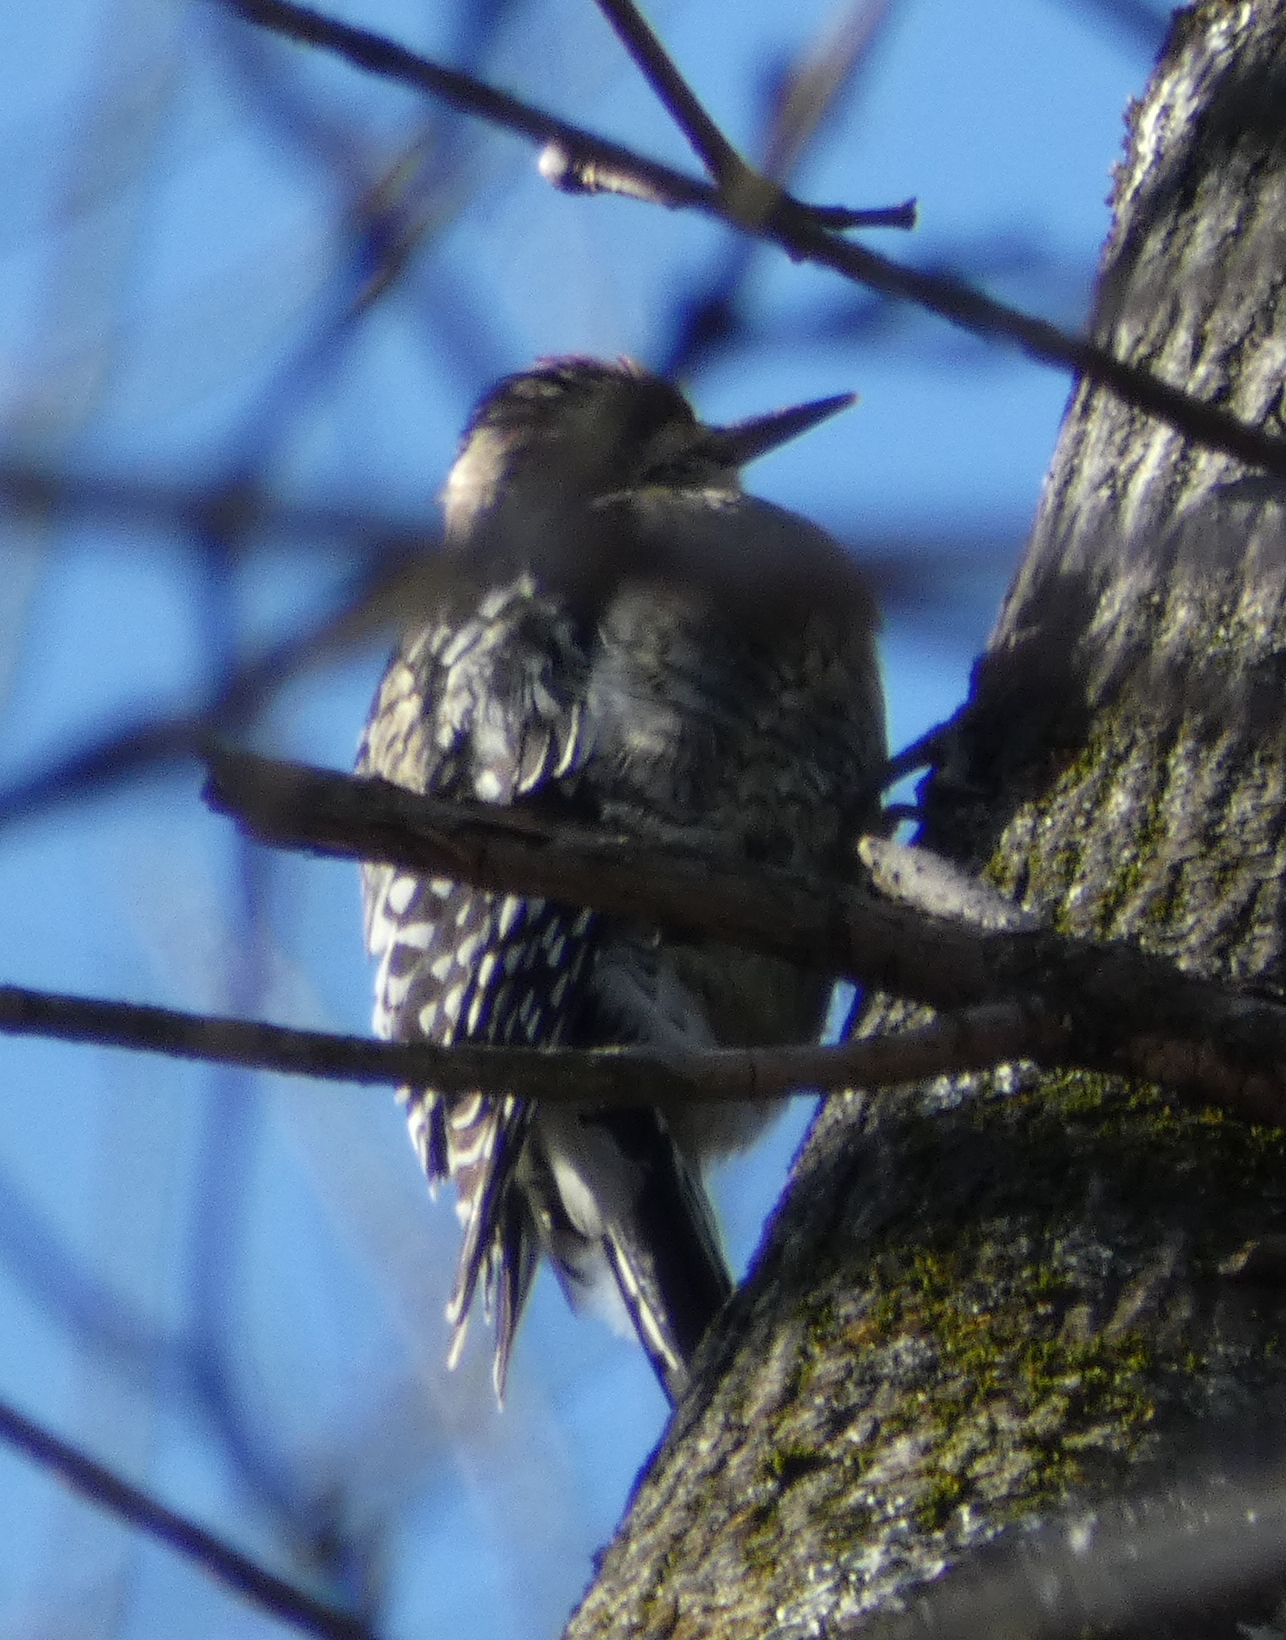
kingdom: Animalia
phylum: Chordata
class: Aves
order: Piciformes
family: Picidae
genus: Sphyrapicus
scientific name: Sphyrapicus varius
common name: Yellow-bellied sapsucker
